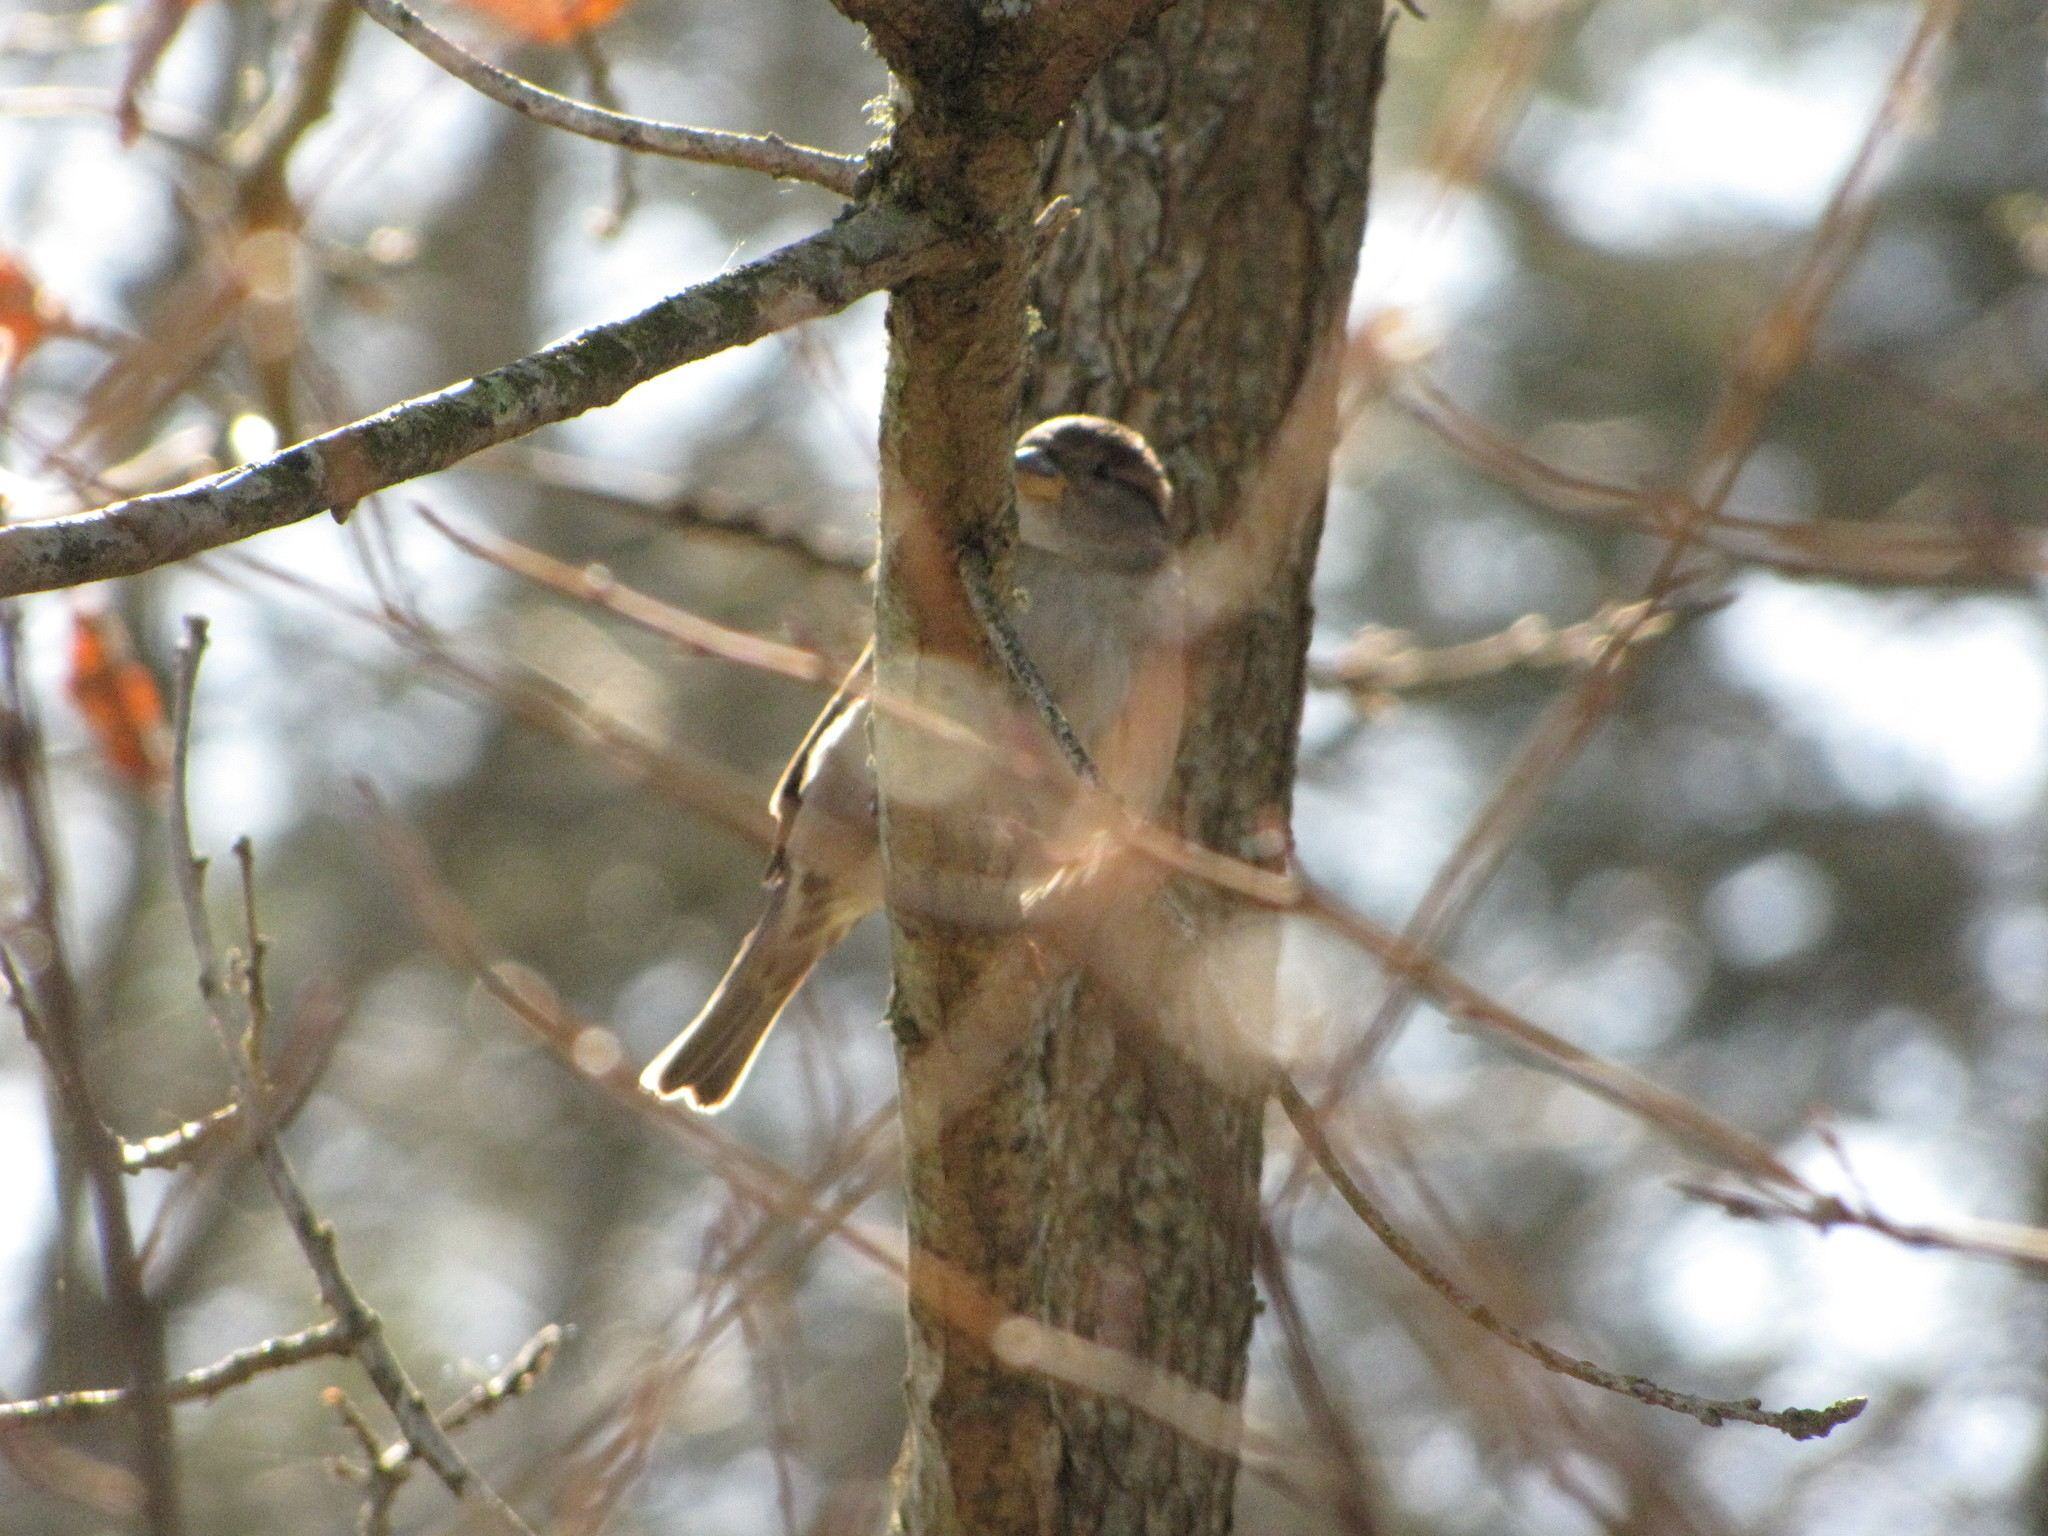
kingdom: Animalia
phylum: Chordata
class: Aves
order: Passeriformes
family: Passeridae
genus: Passer
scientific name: Passer domesticus
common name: House sparrow
